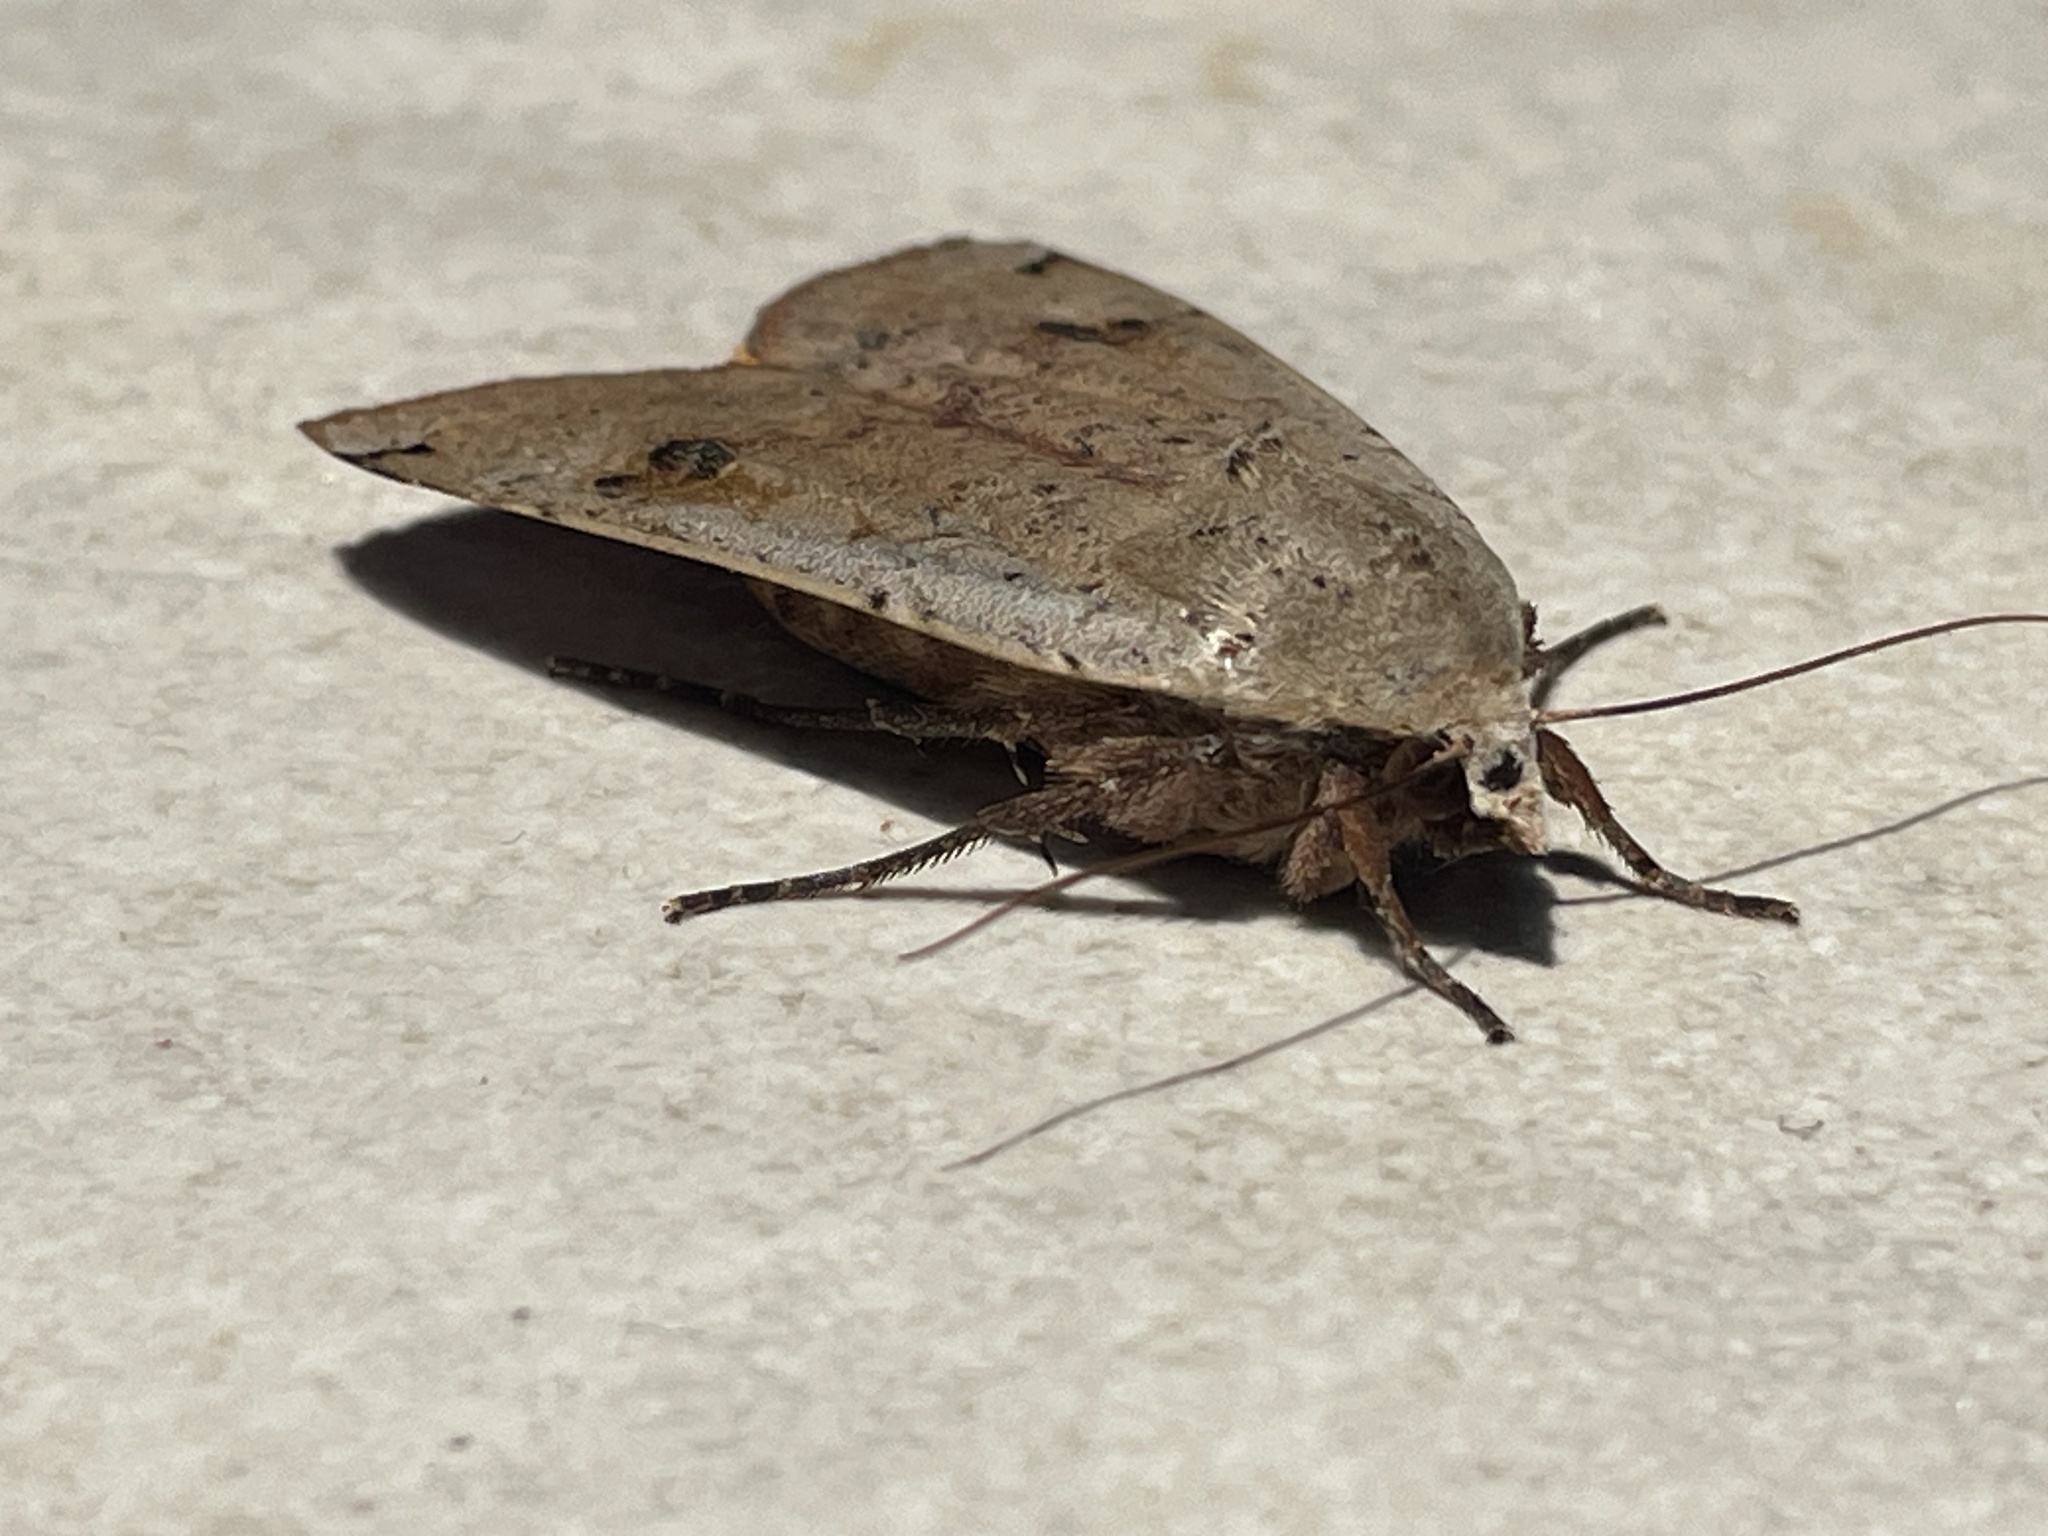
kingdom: Animalia
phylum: Arthropoda
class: Insecta
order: Lepidoptera
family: Noctuidae
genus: Noctua
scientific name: Noctua pronuba
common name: Large yellow underwing
